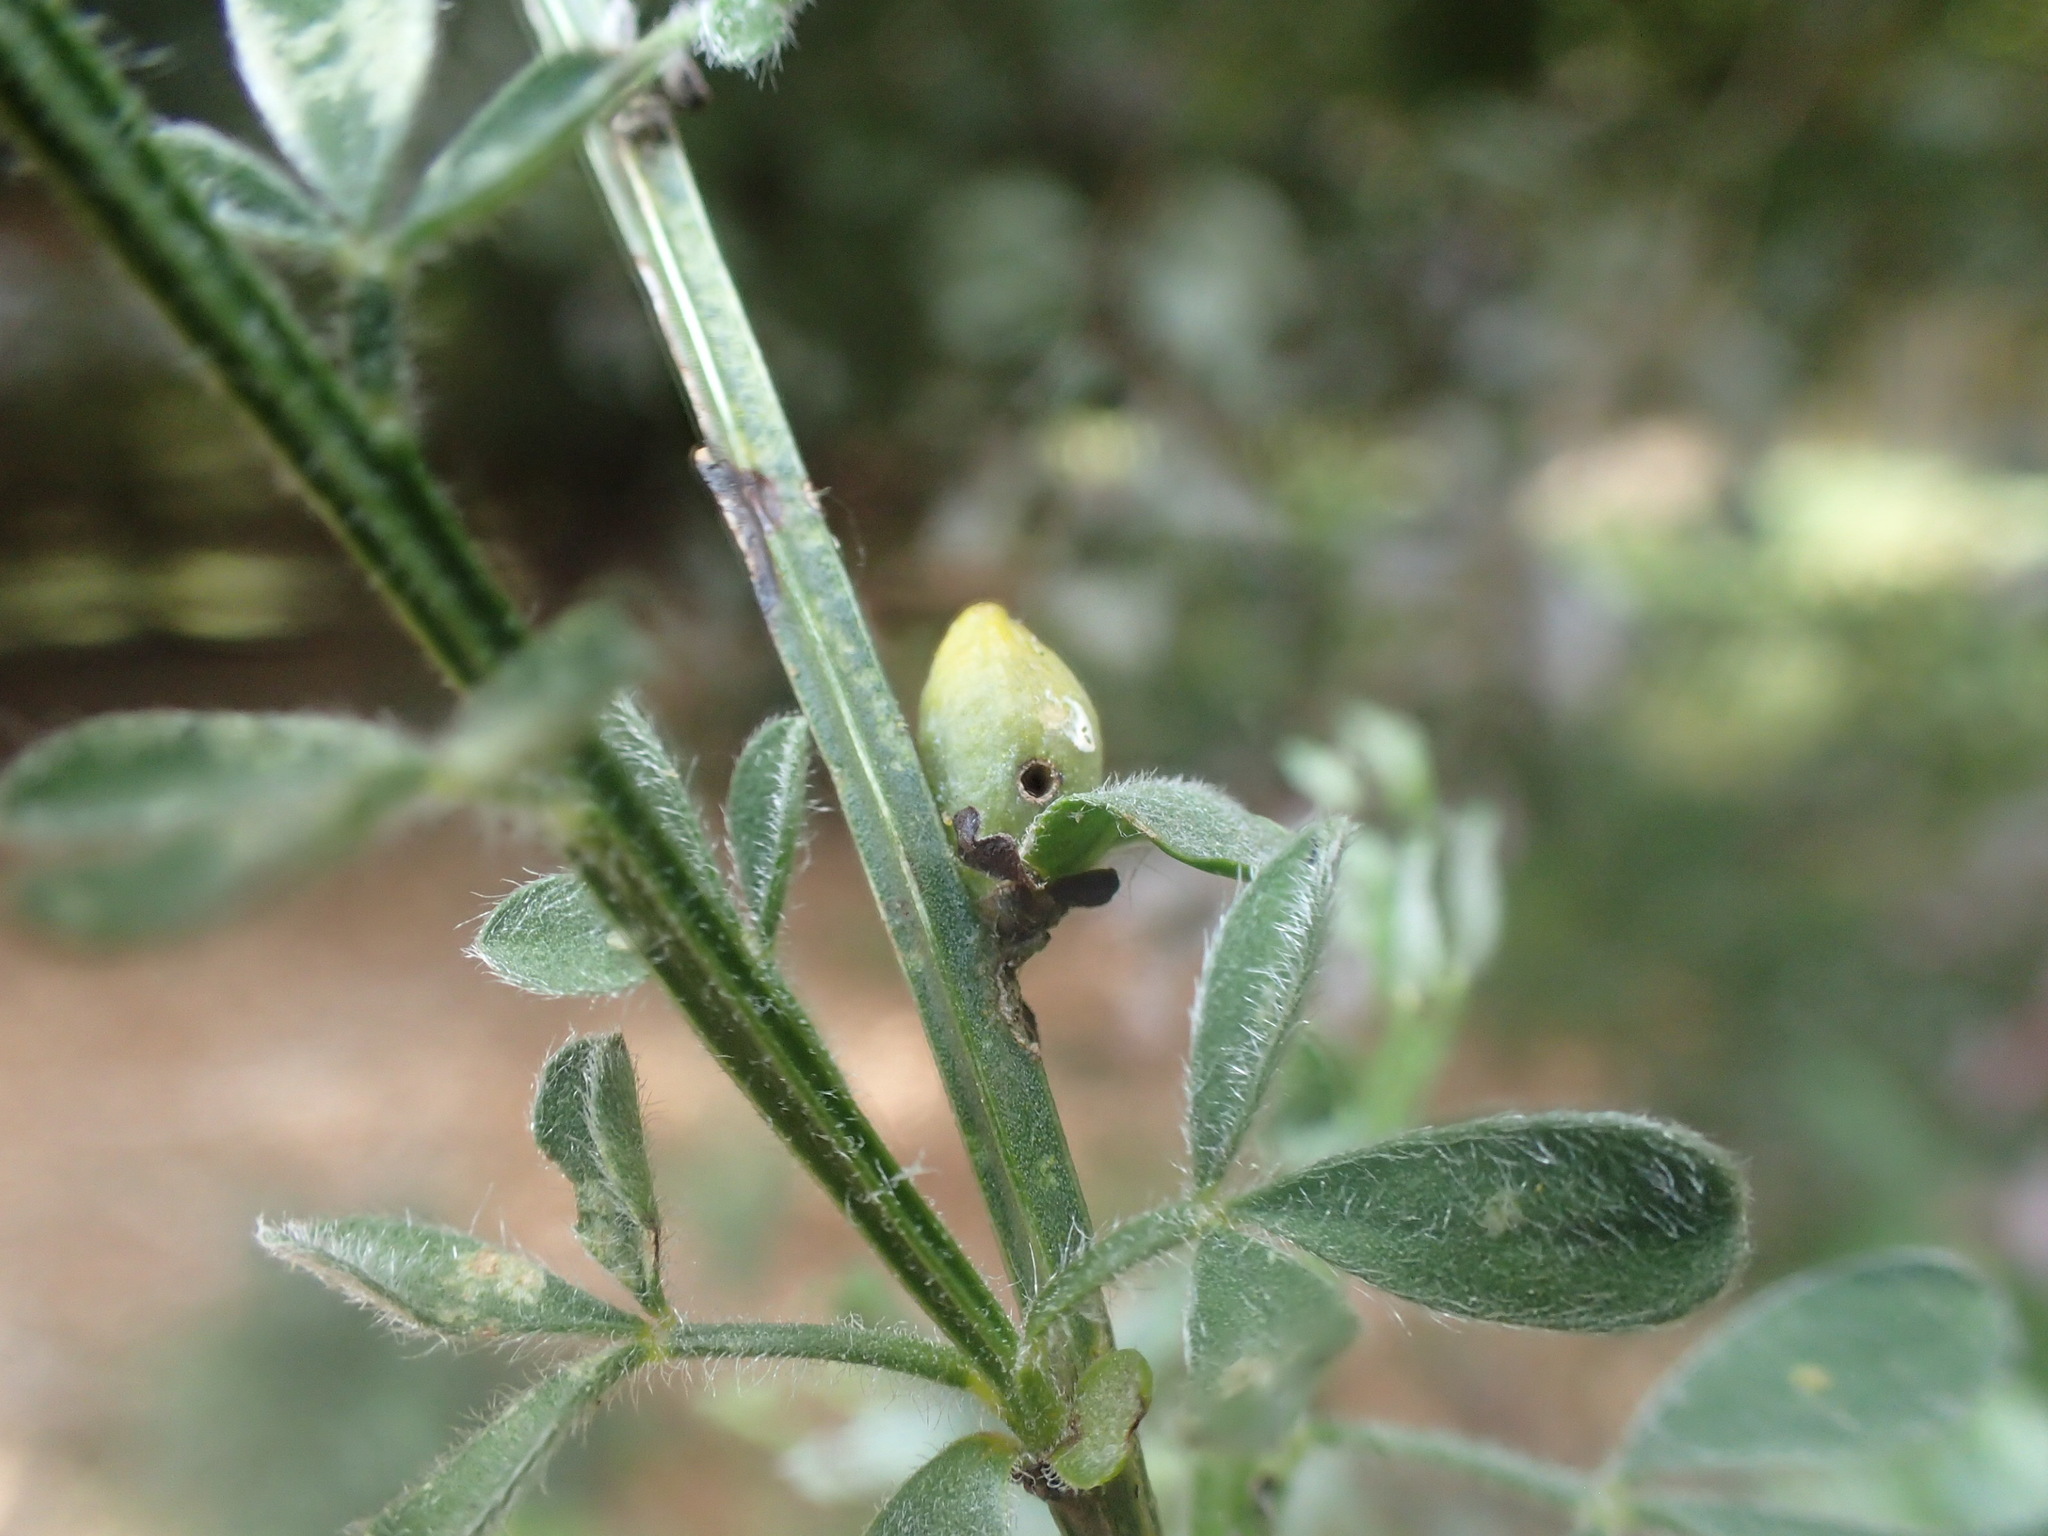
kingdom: Animalia
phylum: Arthropoda
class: Insecta
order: Diptera
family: Cecidomyiidae
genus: Asphondylia
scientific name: Asphondylia sarothamni
